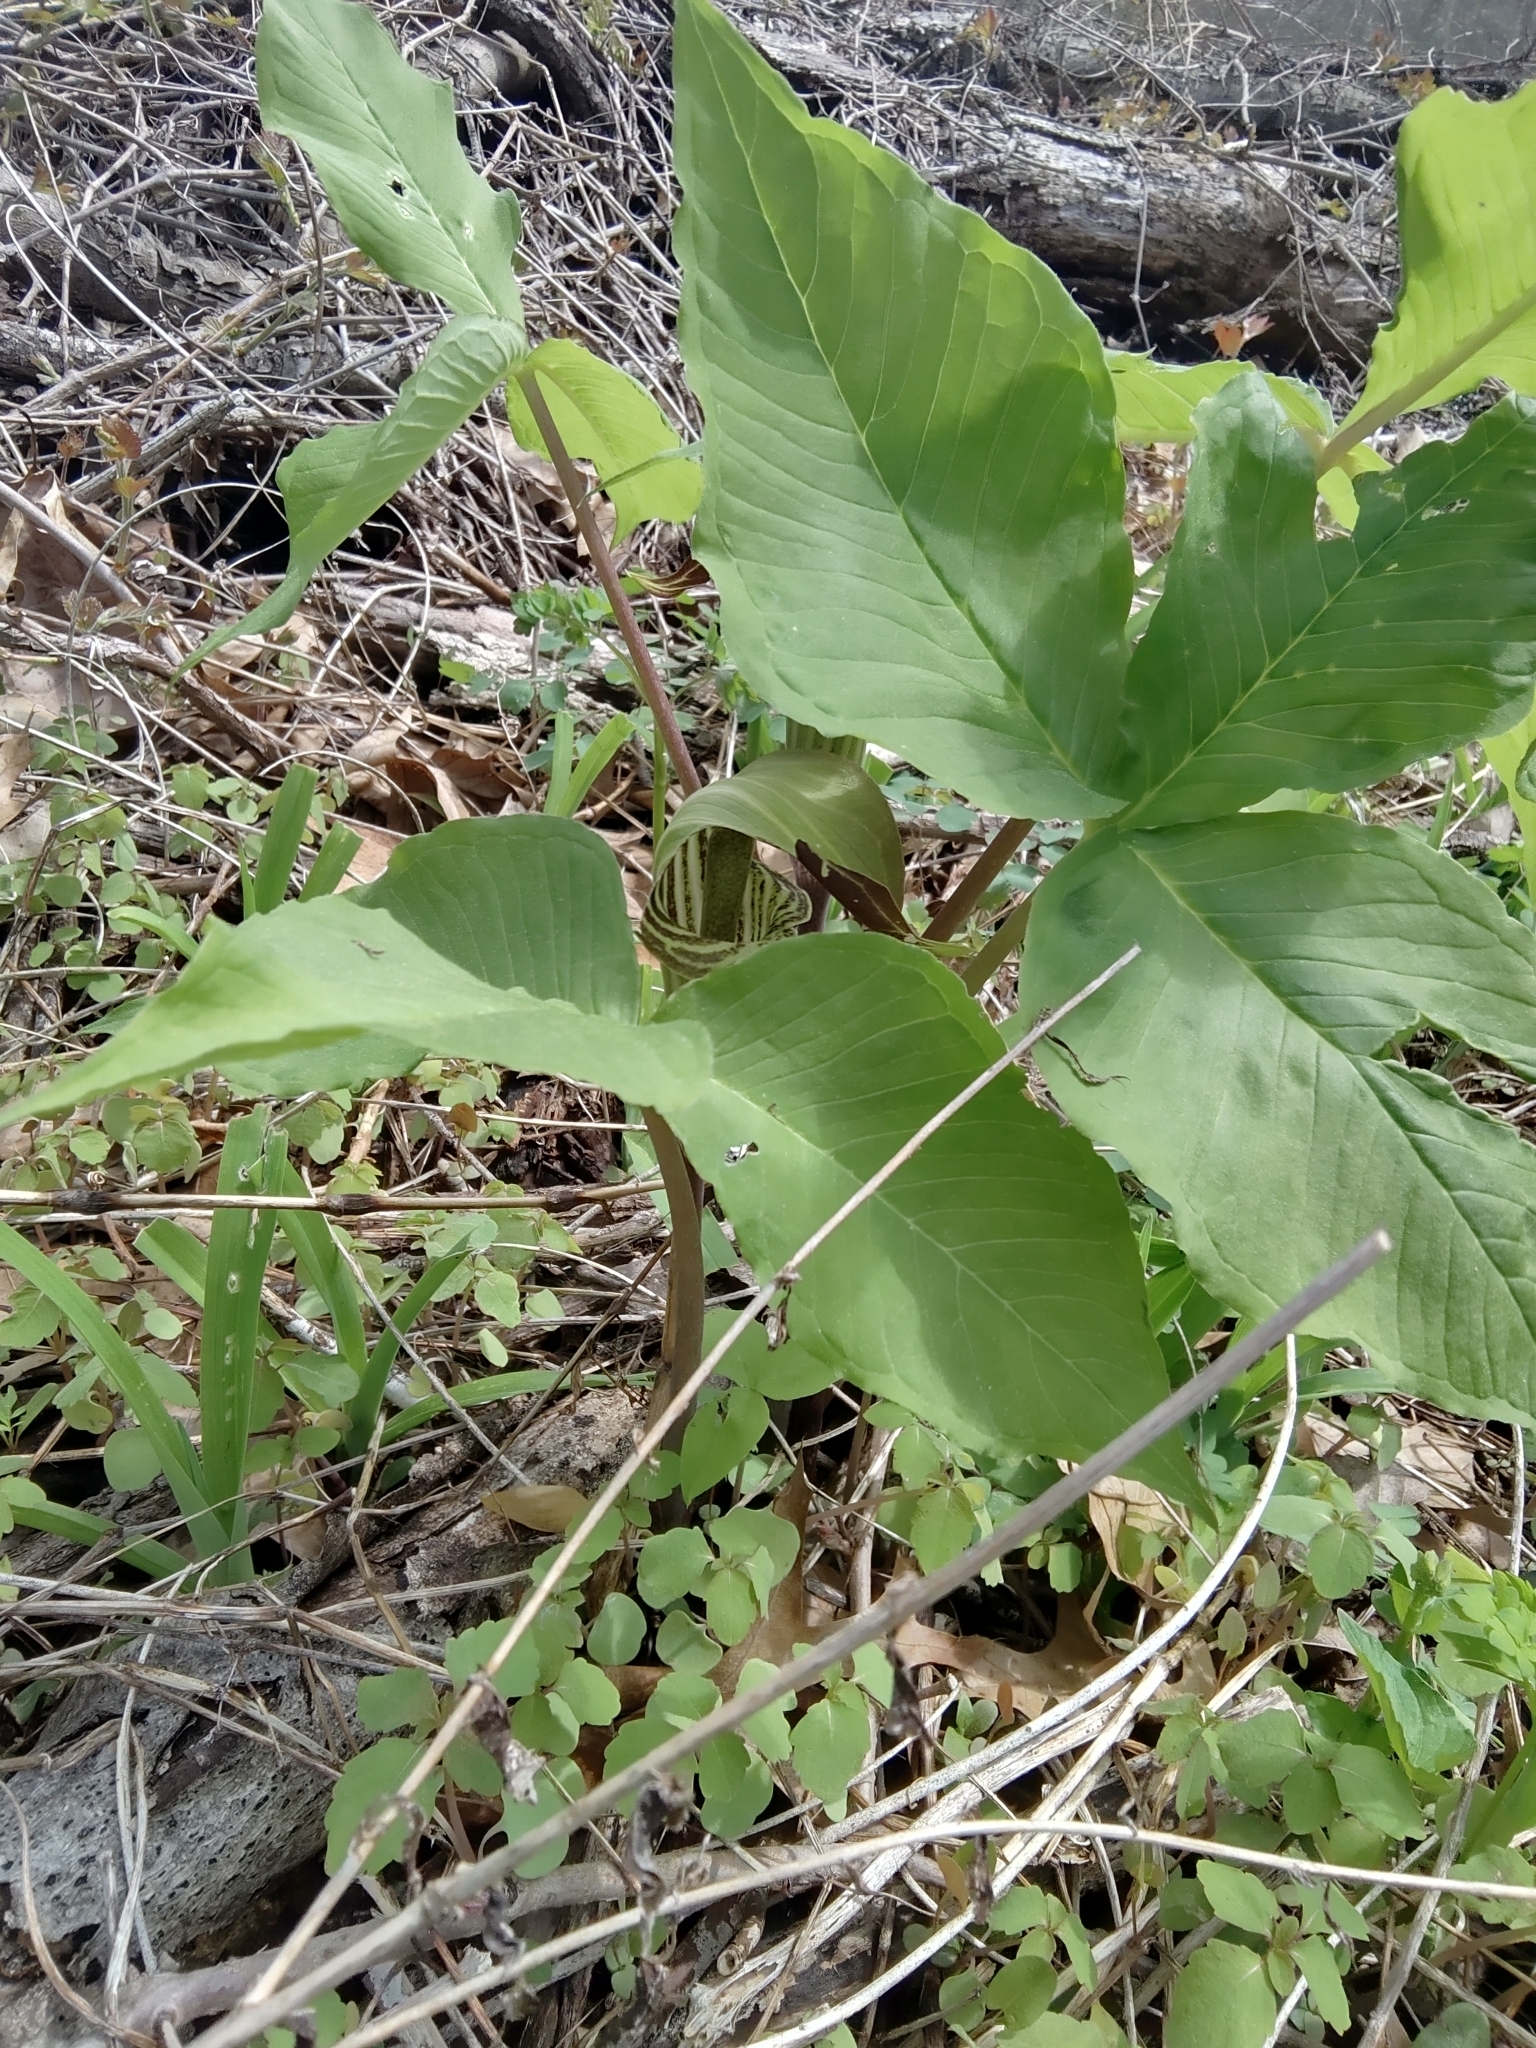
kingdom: Plantae
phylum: Tracheophyta
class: Liliopsida
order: Alismatales
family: Araceae
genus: Arisaema
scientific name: Arisaema triphyllum
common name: Jack-in-the-pulpit
